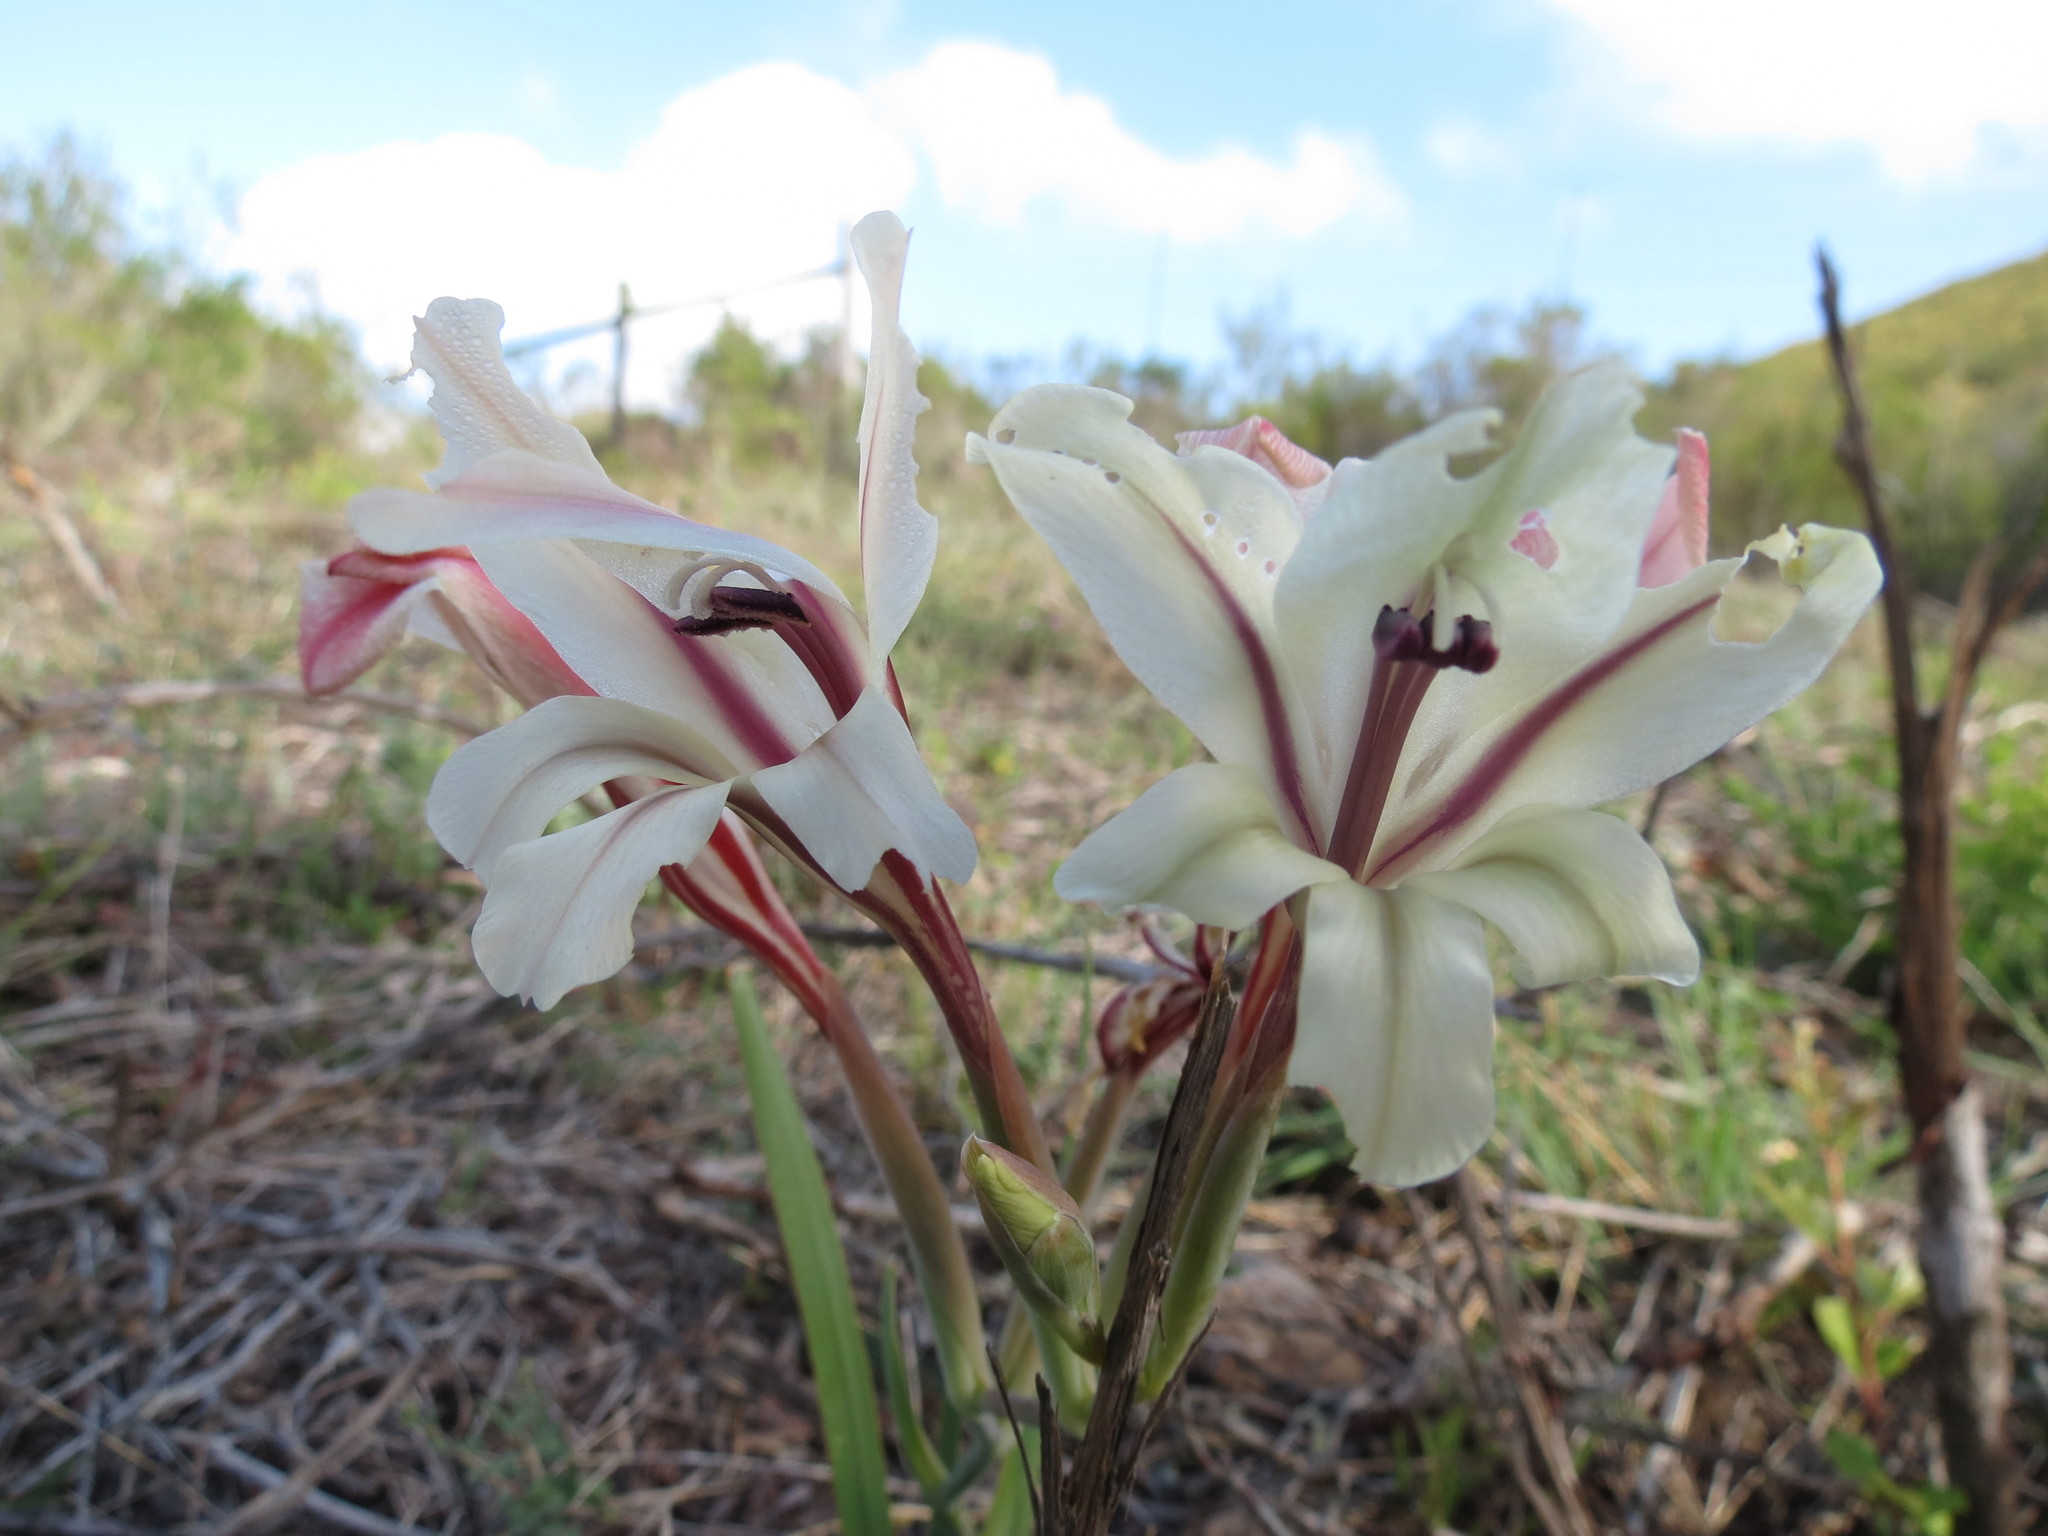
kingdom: Plantae
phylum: Tracheophyta
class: Liliopsida
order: Asparagales
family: Iridaceae
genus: Gladiolus
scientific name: Gladiolus floribundus
